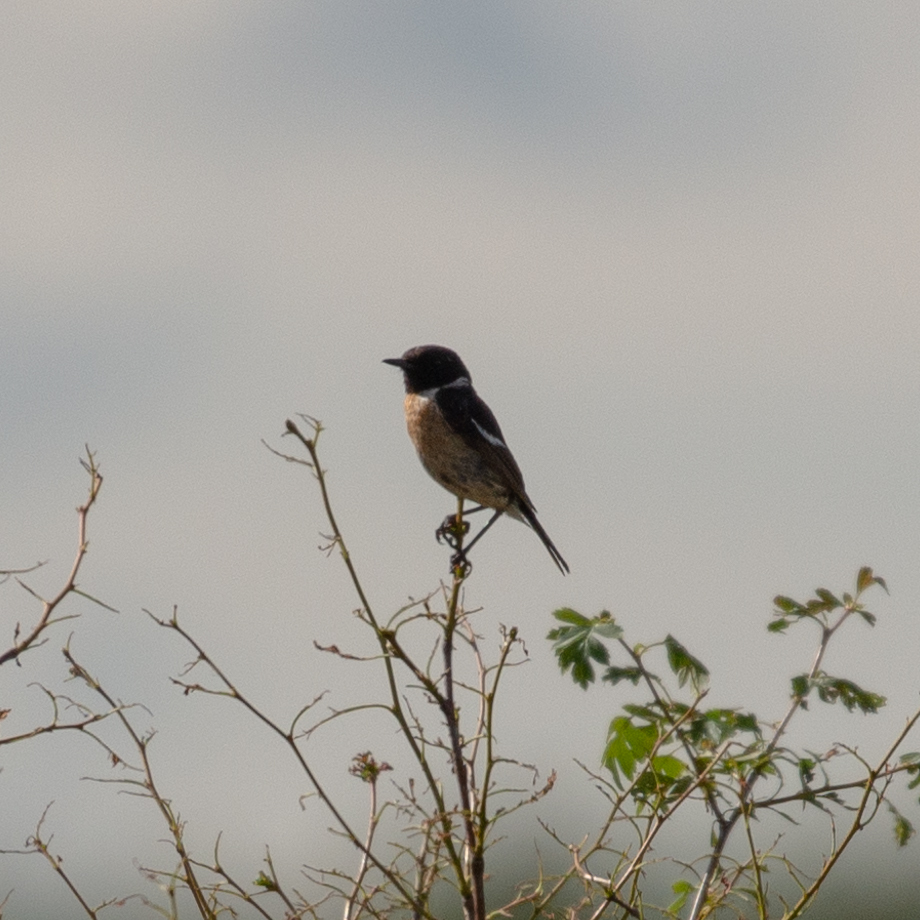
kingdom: Animalia
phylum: Chordata
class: Aves
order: Passeriformes
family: Muscicapidae
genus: Saxicola
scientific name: Saxicola rubicola
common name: European stonechat
